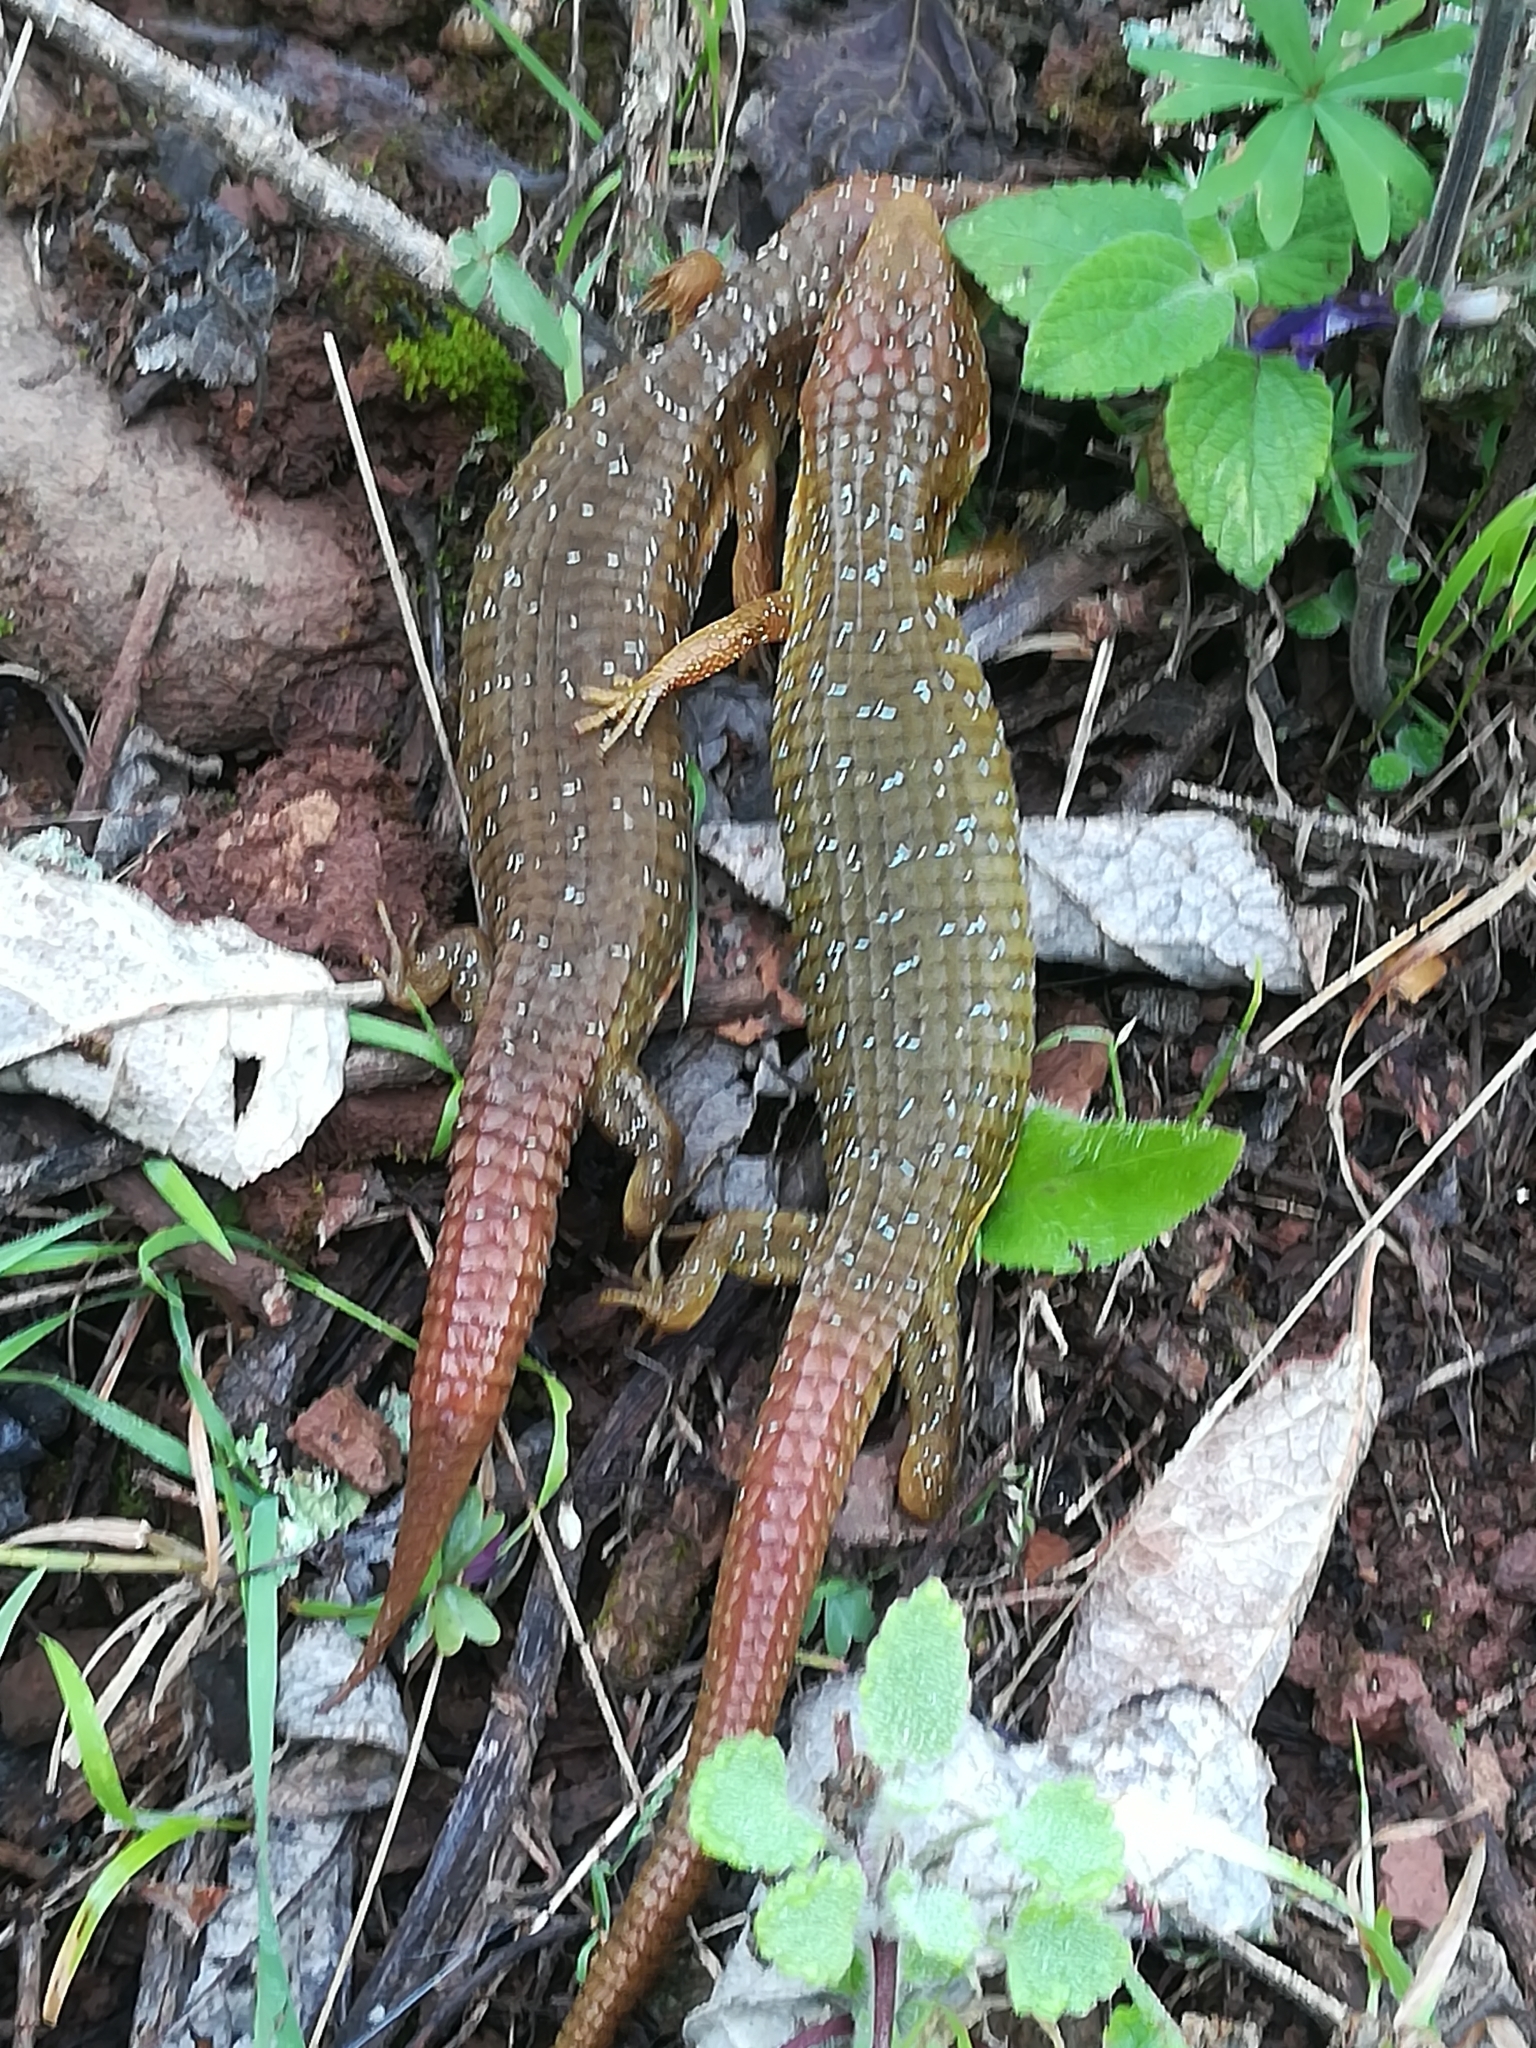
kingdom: Animalia
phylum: Chordata
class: Squamata
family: Anguidae
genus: Barisia
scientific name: Barisia ciliaris
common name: Imbricate alligator lizard
